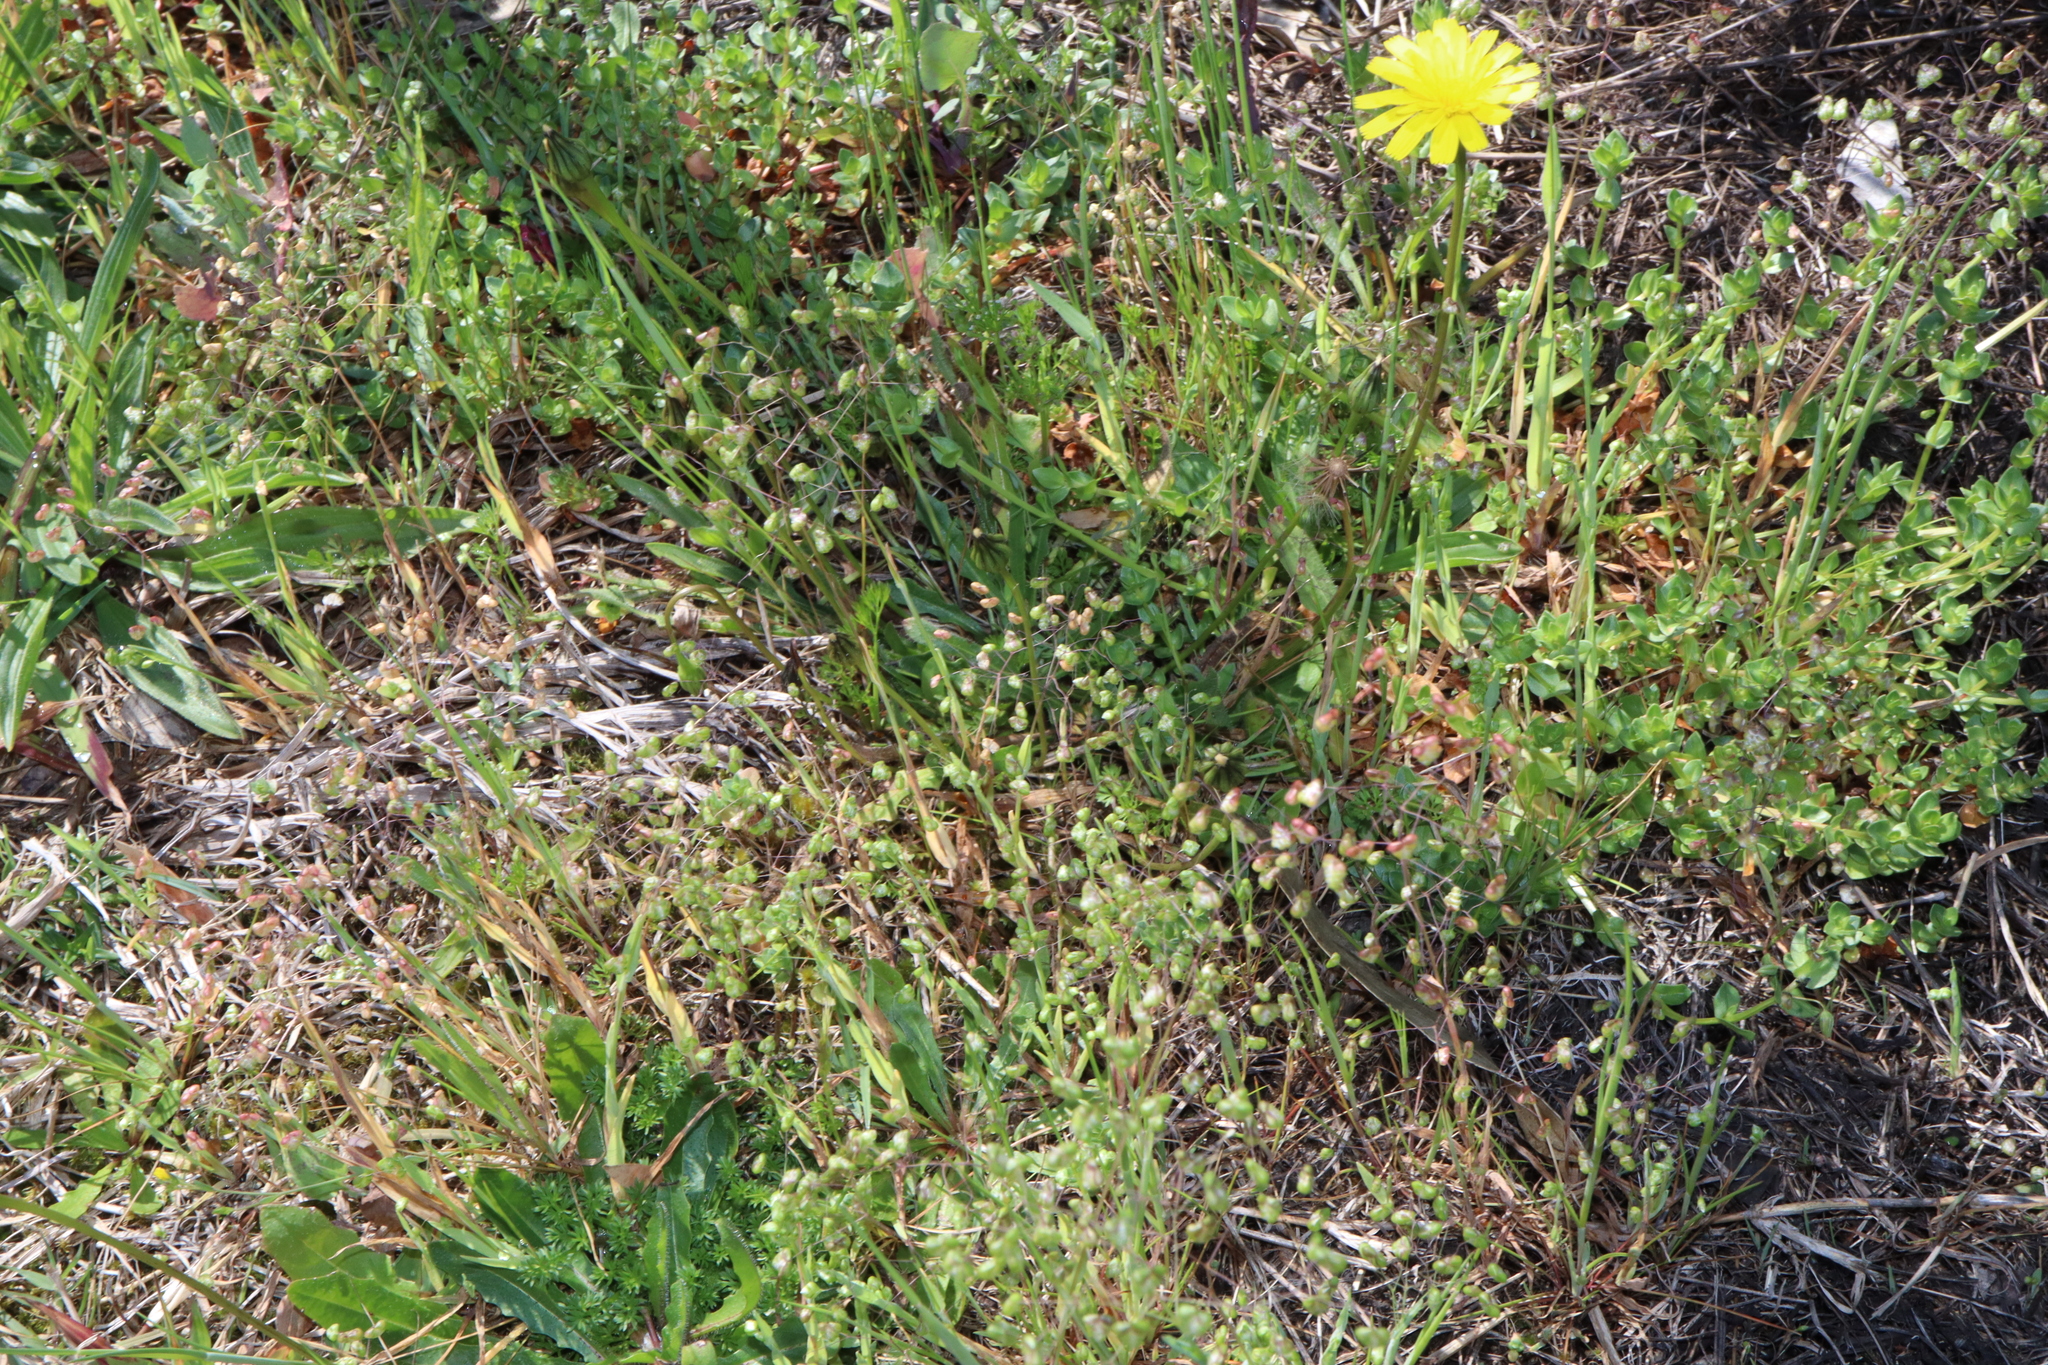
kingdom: Plantae
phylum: Tracheophyta
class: Liliopsida
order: Poales
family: Poaceae
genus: Briza
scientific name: Briza minor
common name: Lesser quaking-grass
